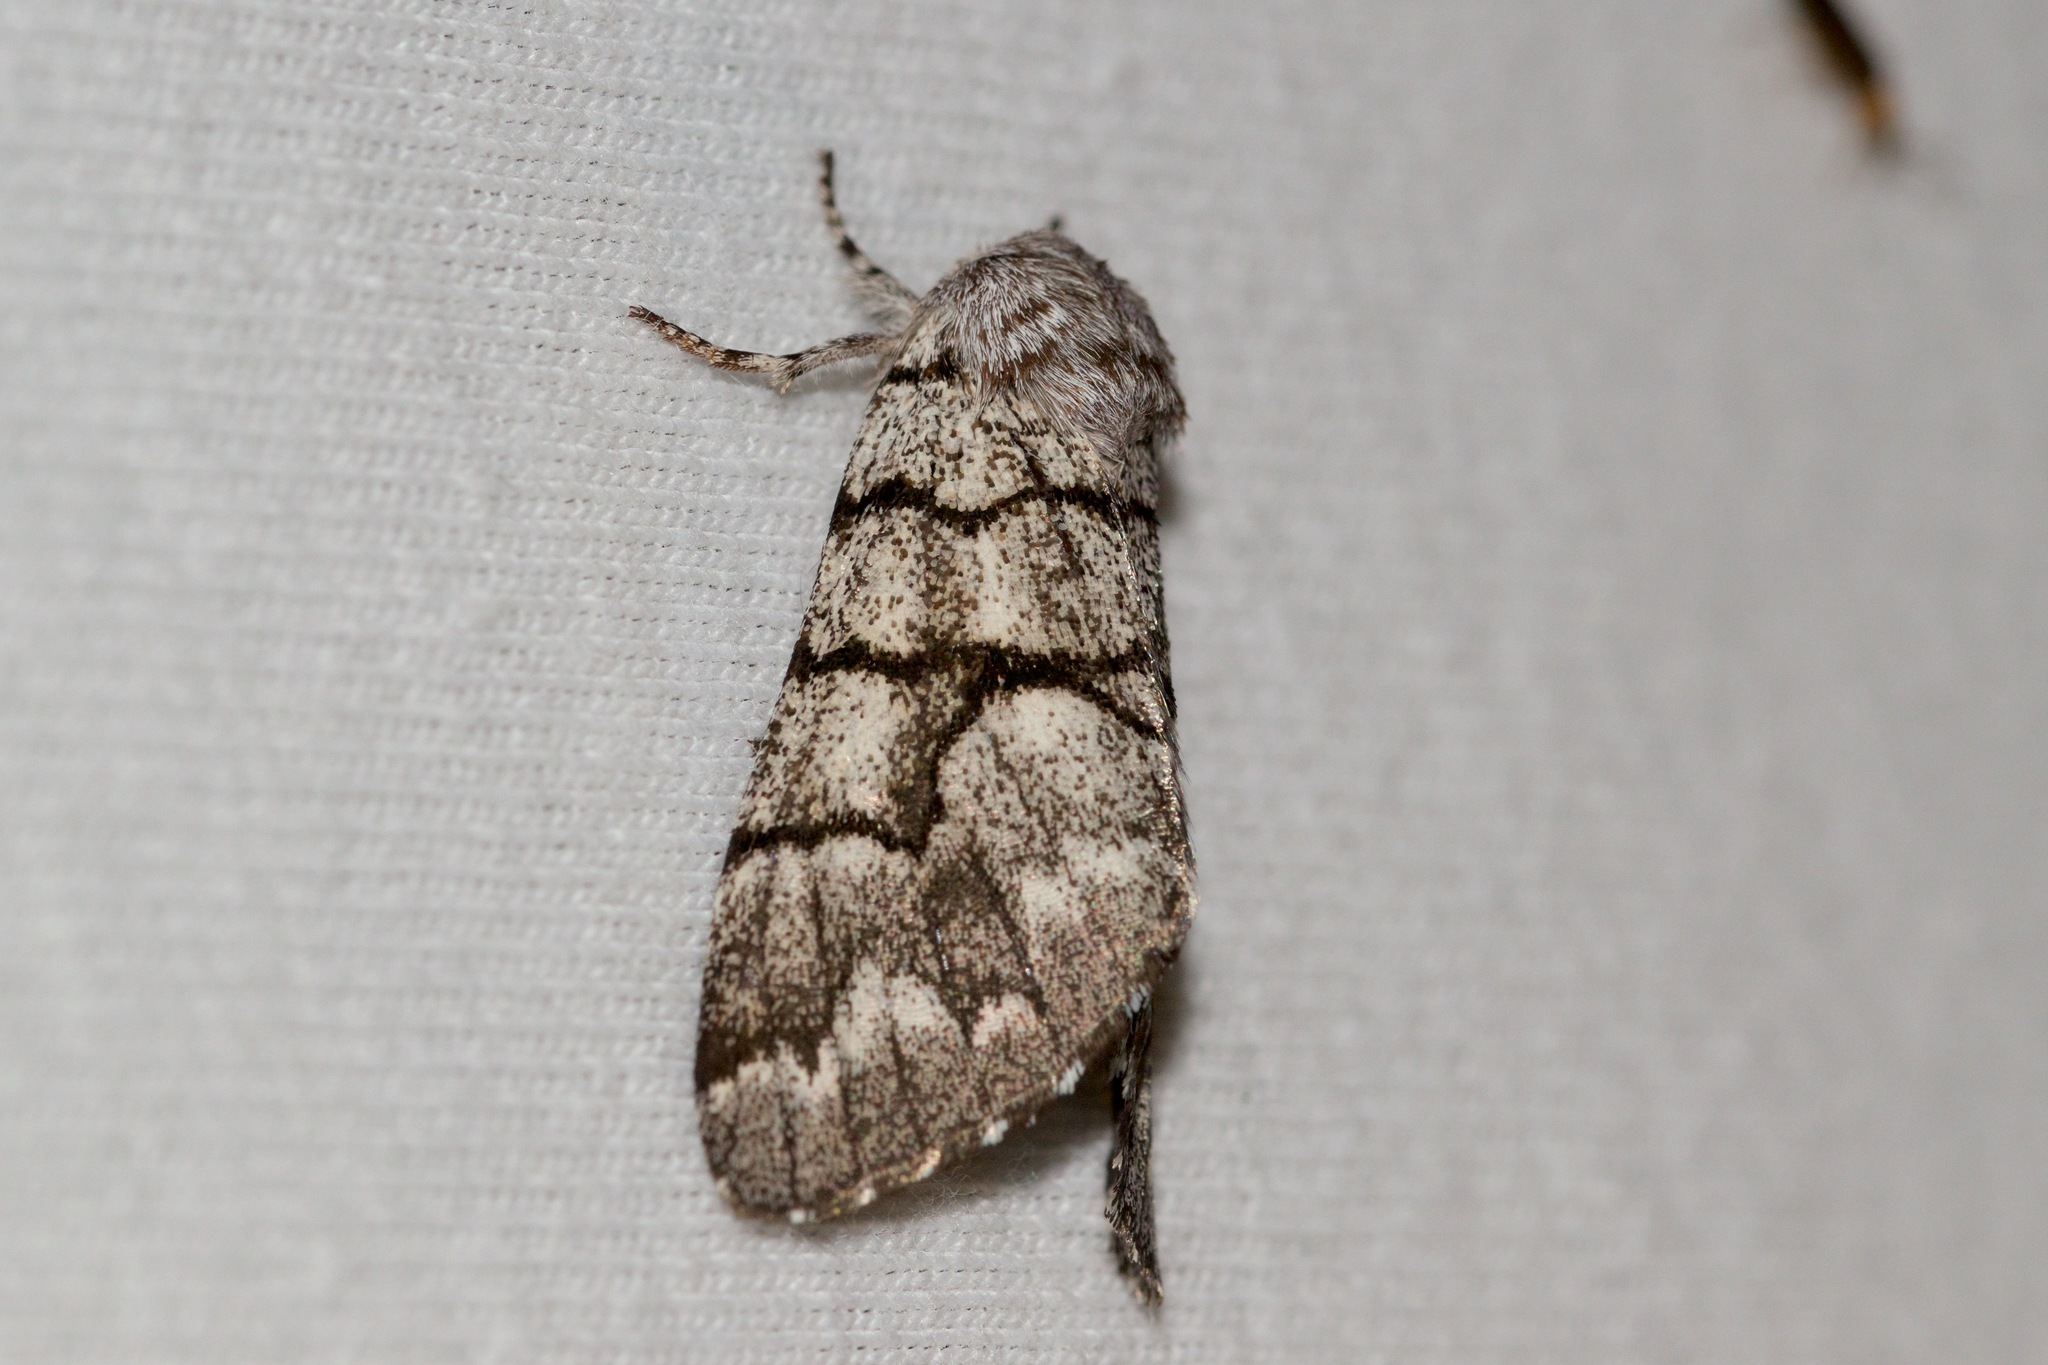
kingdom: Animalia
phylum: Arthropoda
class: Insecta
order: Lepidoptera
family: Noctuidae
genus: Panthea
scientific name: Panthea furcilla
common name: Eastern panthea moth
